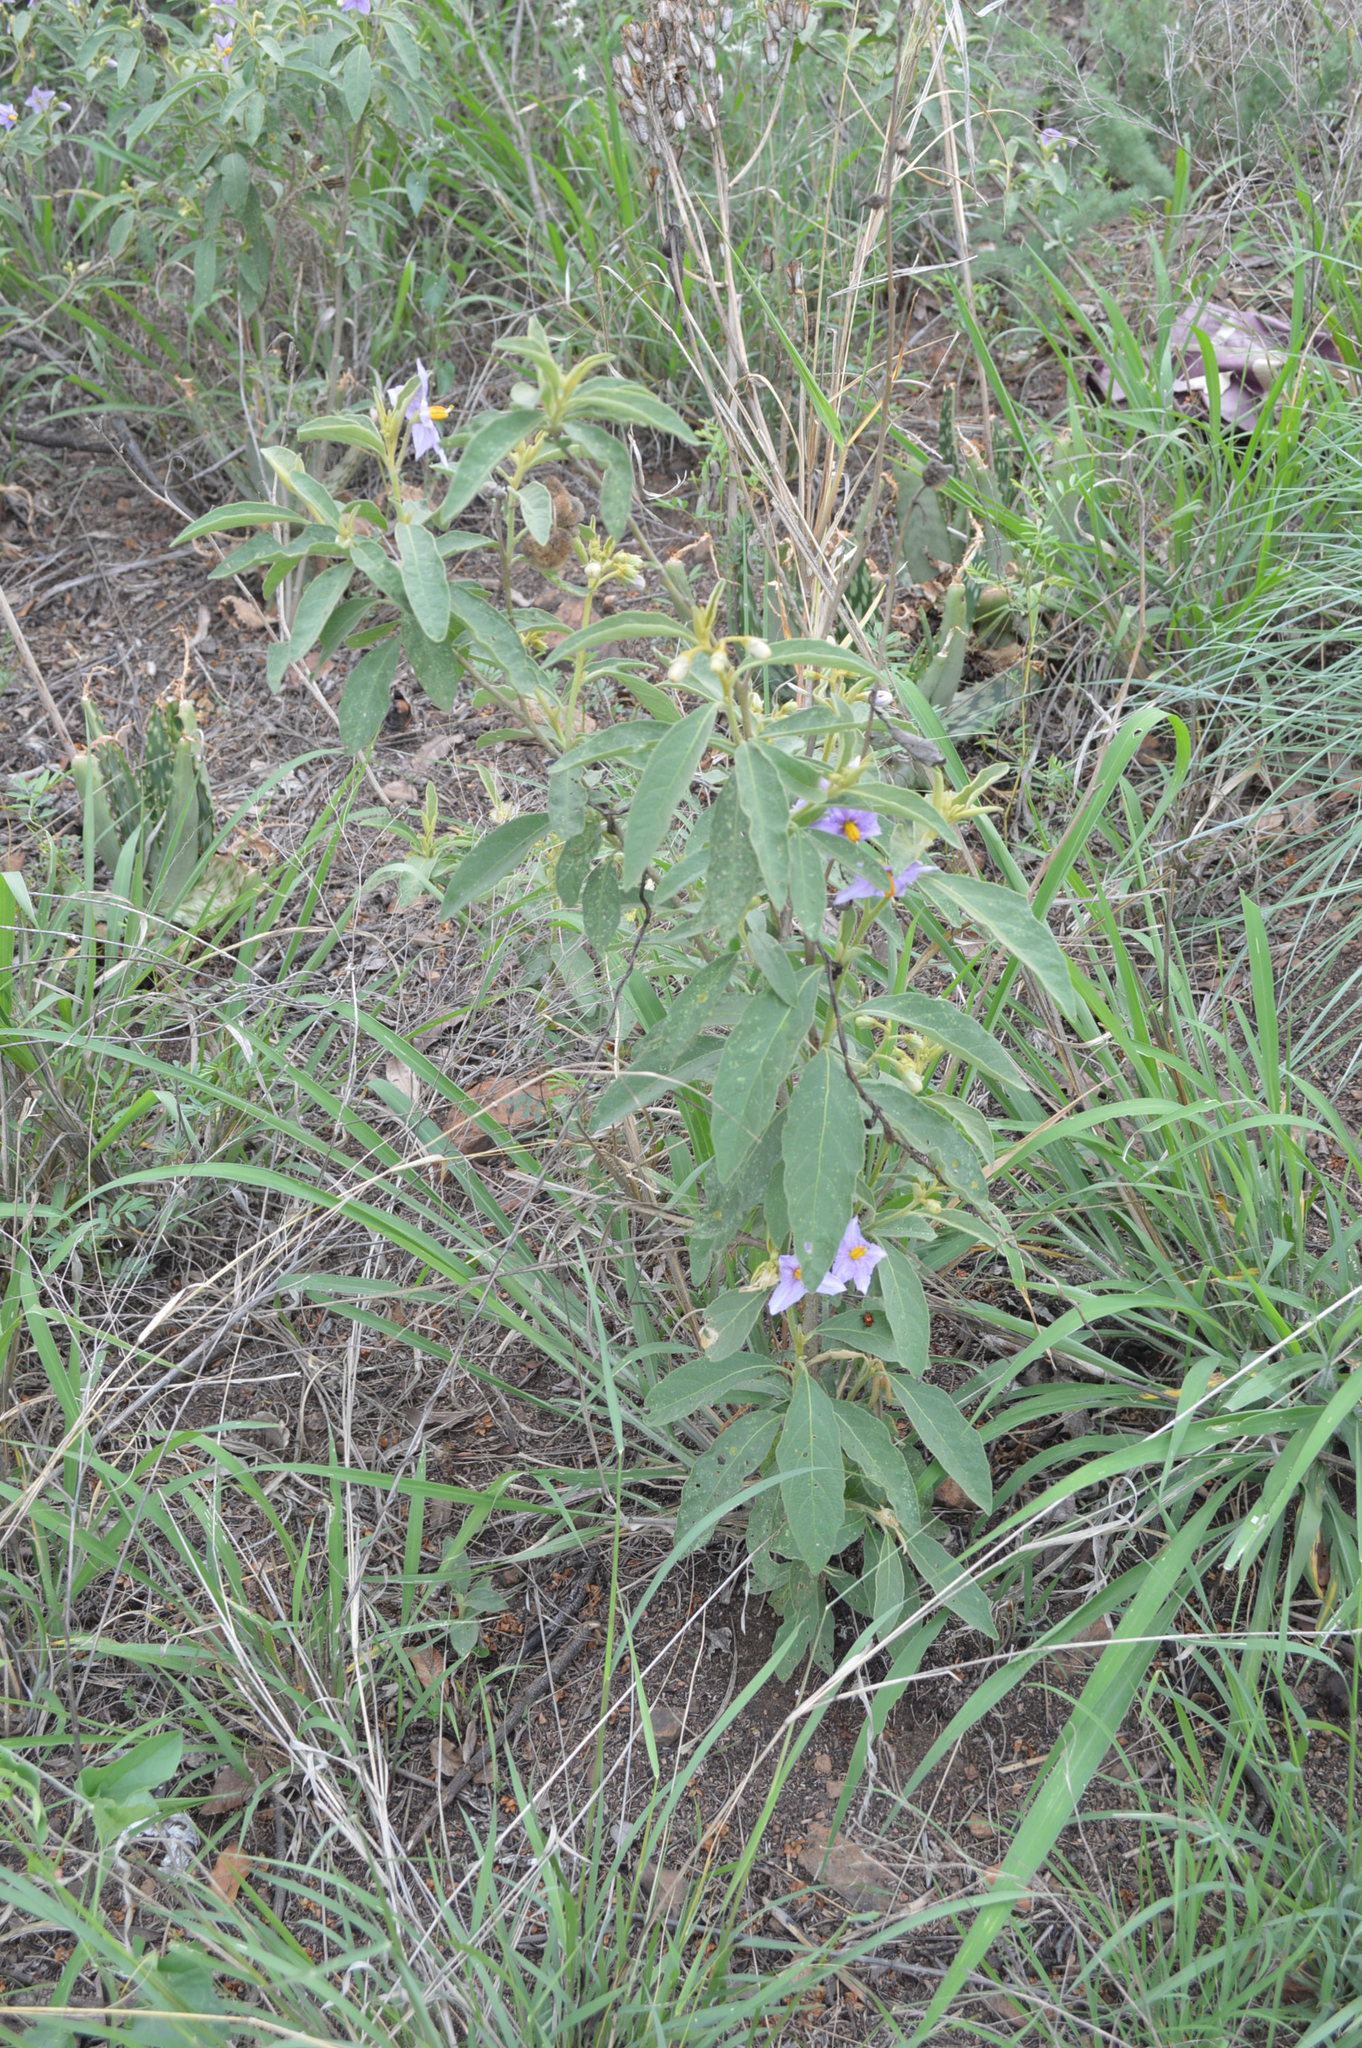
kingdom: Plantae
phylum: Tracheophyta
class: Magnoliopsida
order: Solanales
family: Solanaceae
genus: Solanum
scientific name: Solanum campylacanthum
